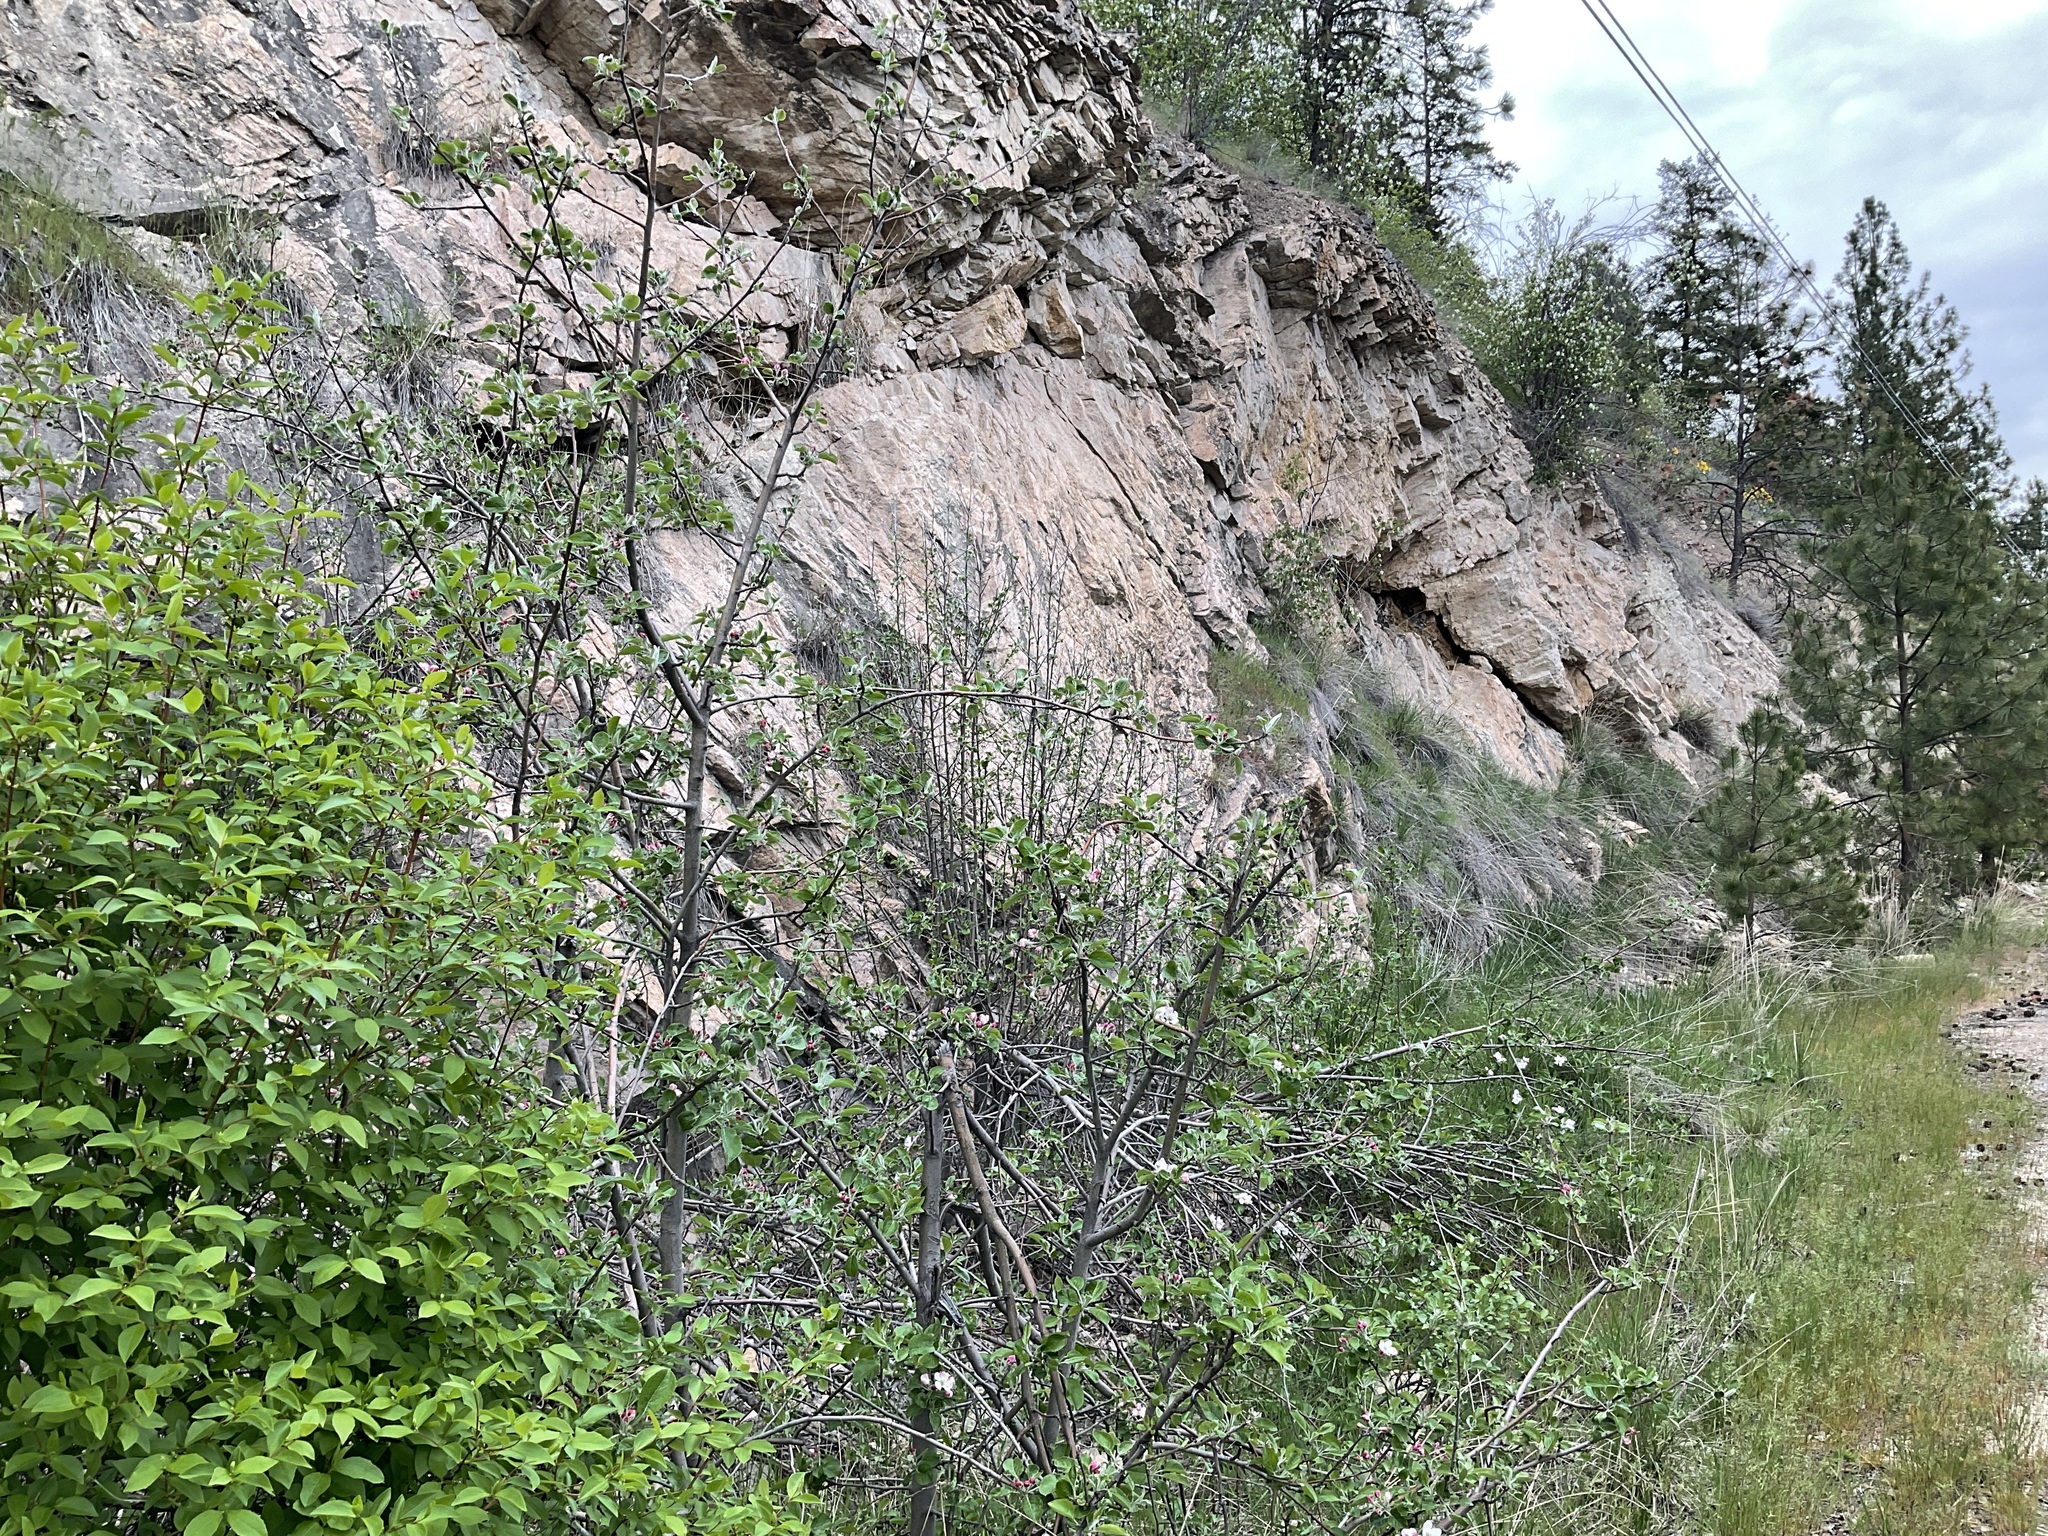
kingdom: Plantae
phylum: Tracheophyta
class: Magnoliopsida
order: Rosales
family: Rosaceae
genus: Malus
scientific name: Malus domestica
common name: Apple
